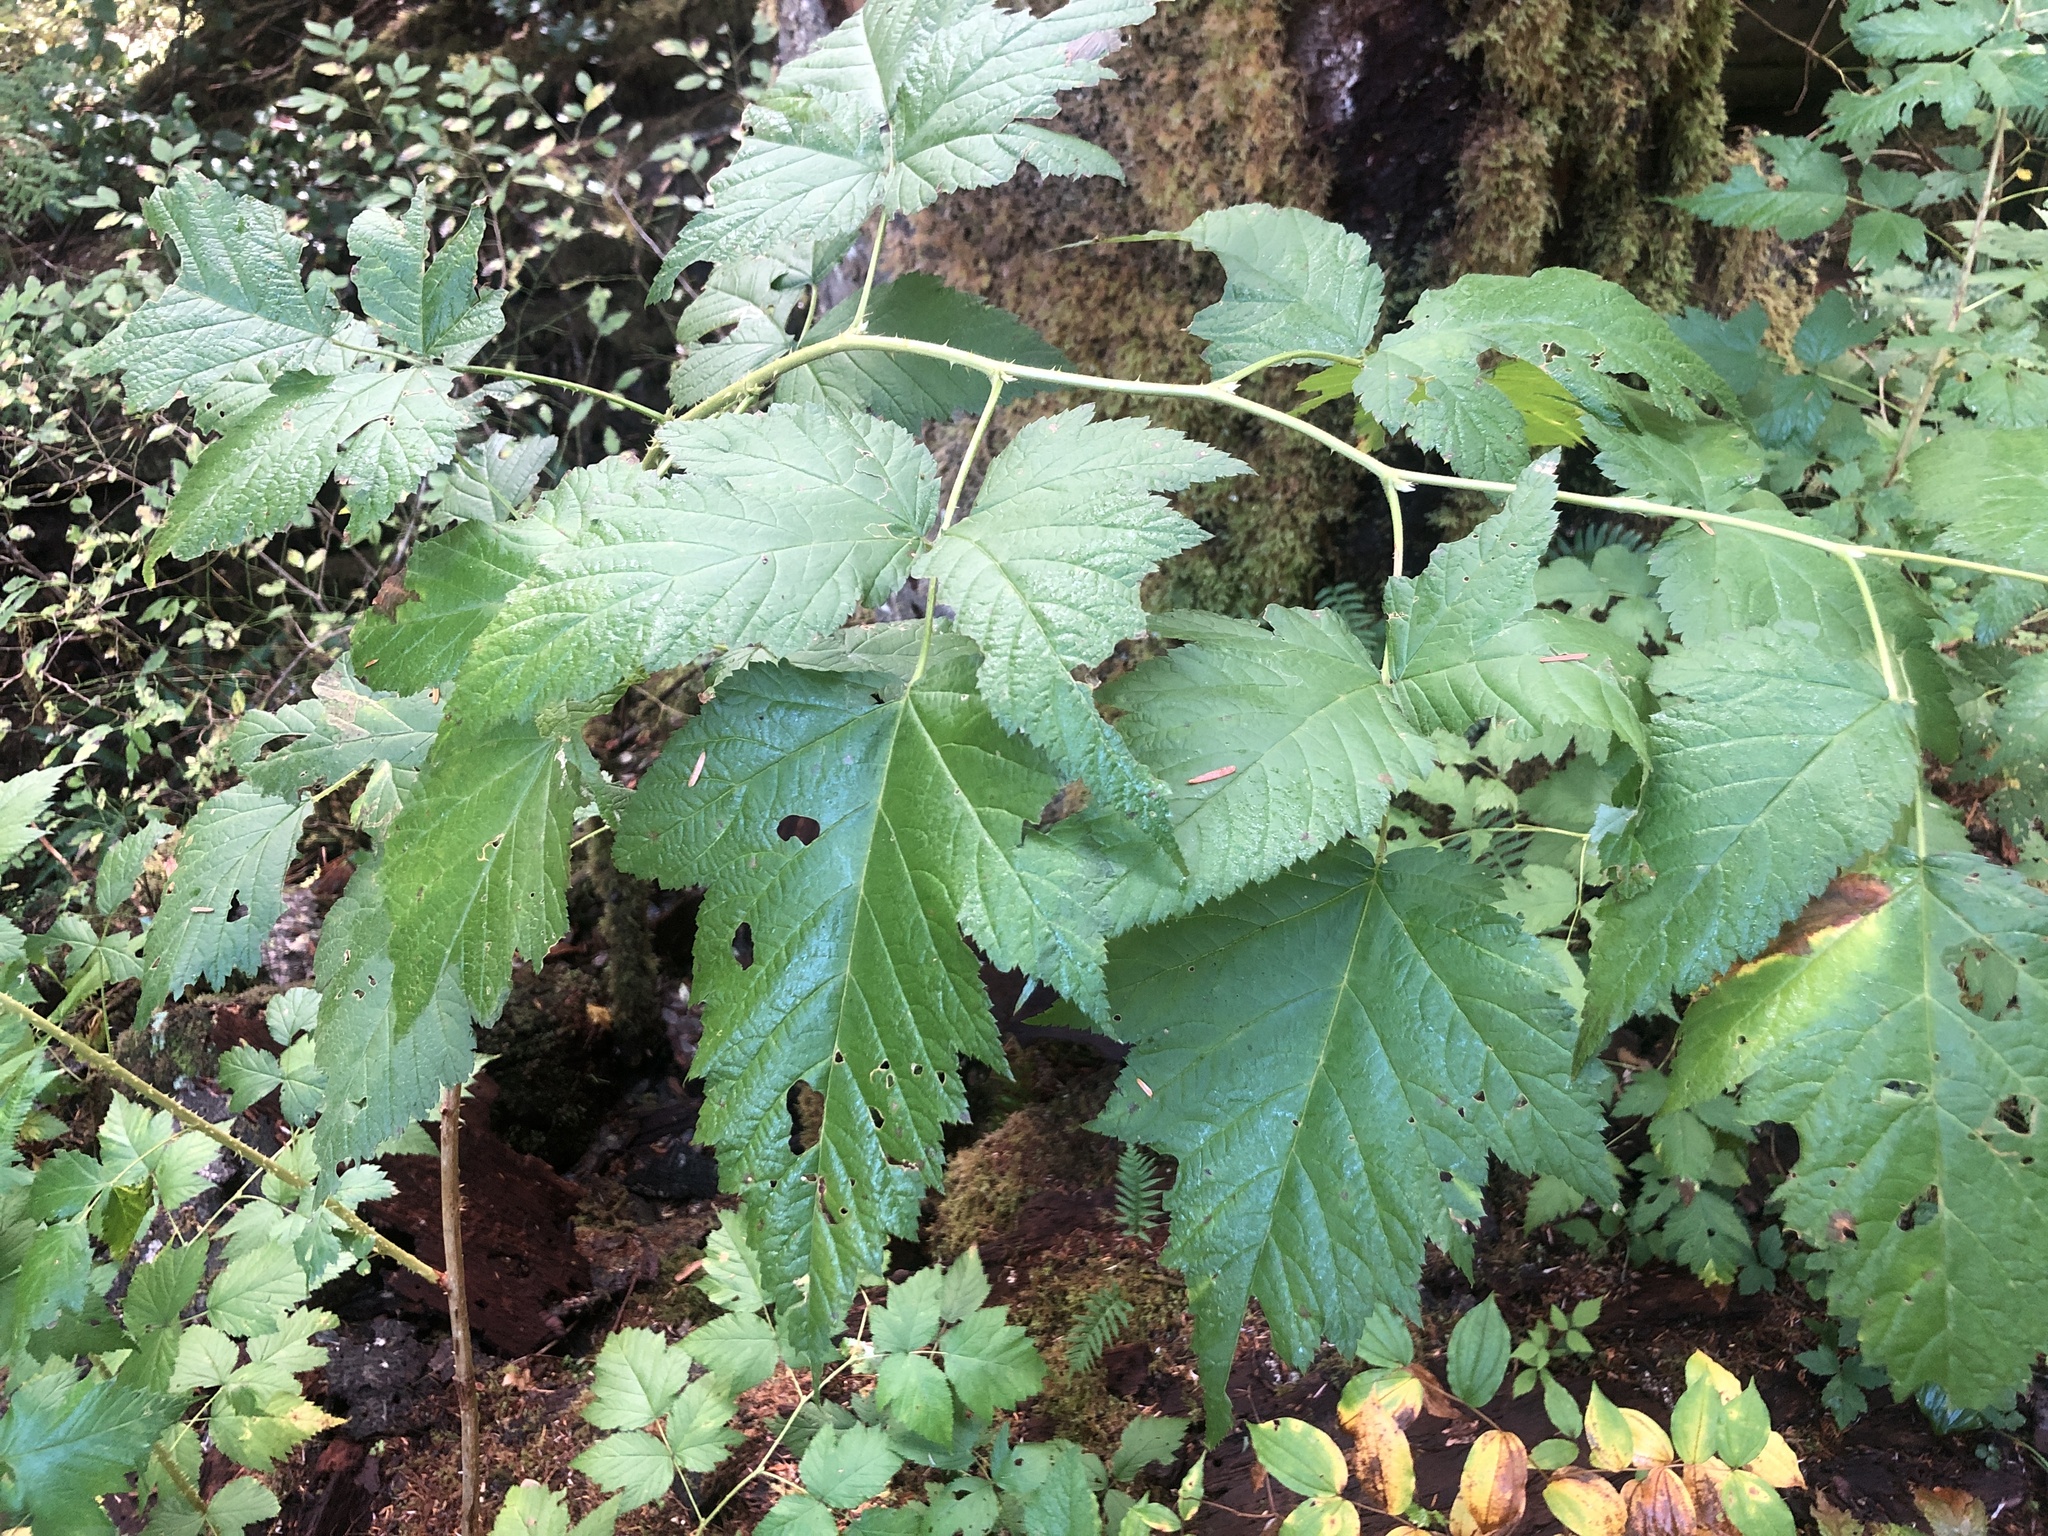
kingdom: Plantae
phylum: Tracheophyta
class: Magnoliopsida
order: Rosales
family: Rosaceae
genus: Rubus
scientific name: Rubus spectabilis
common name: Salmonberry
